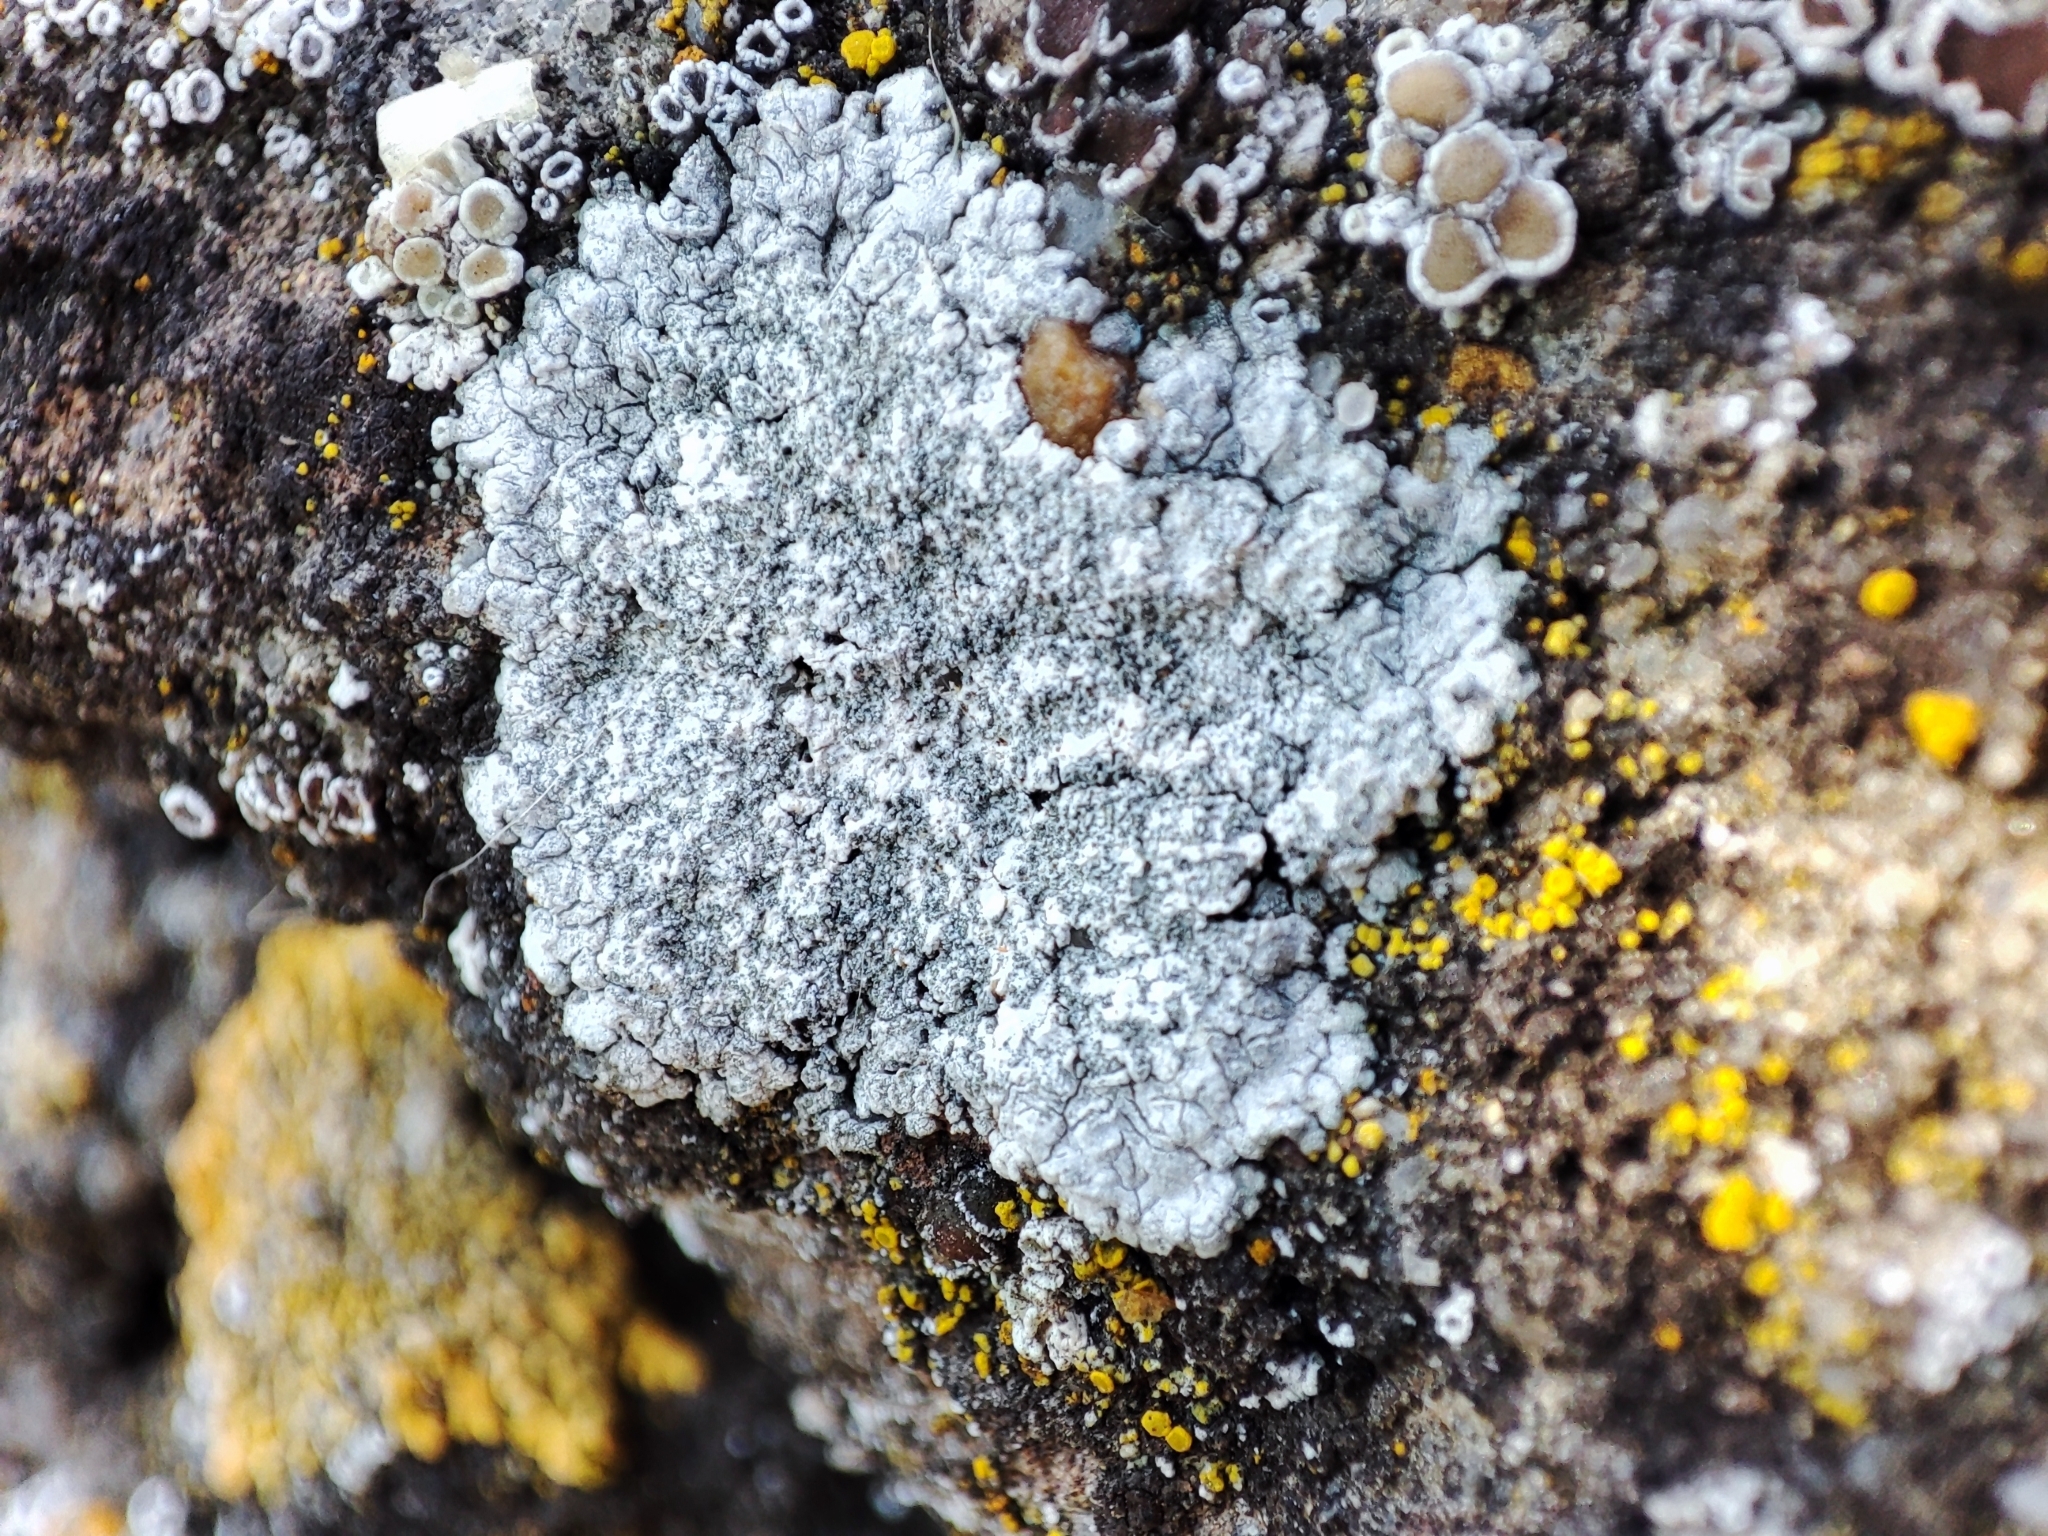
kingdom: Fungi
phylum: Ascomycota
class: Lecanoromycetes
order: Teloschistales
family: Teloschistaceae
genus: Kuettlingeria
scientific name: Kuettlingeria teicholyta
